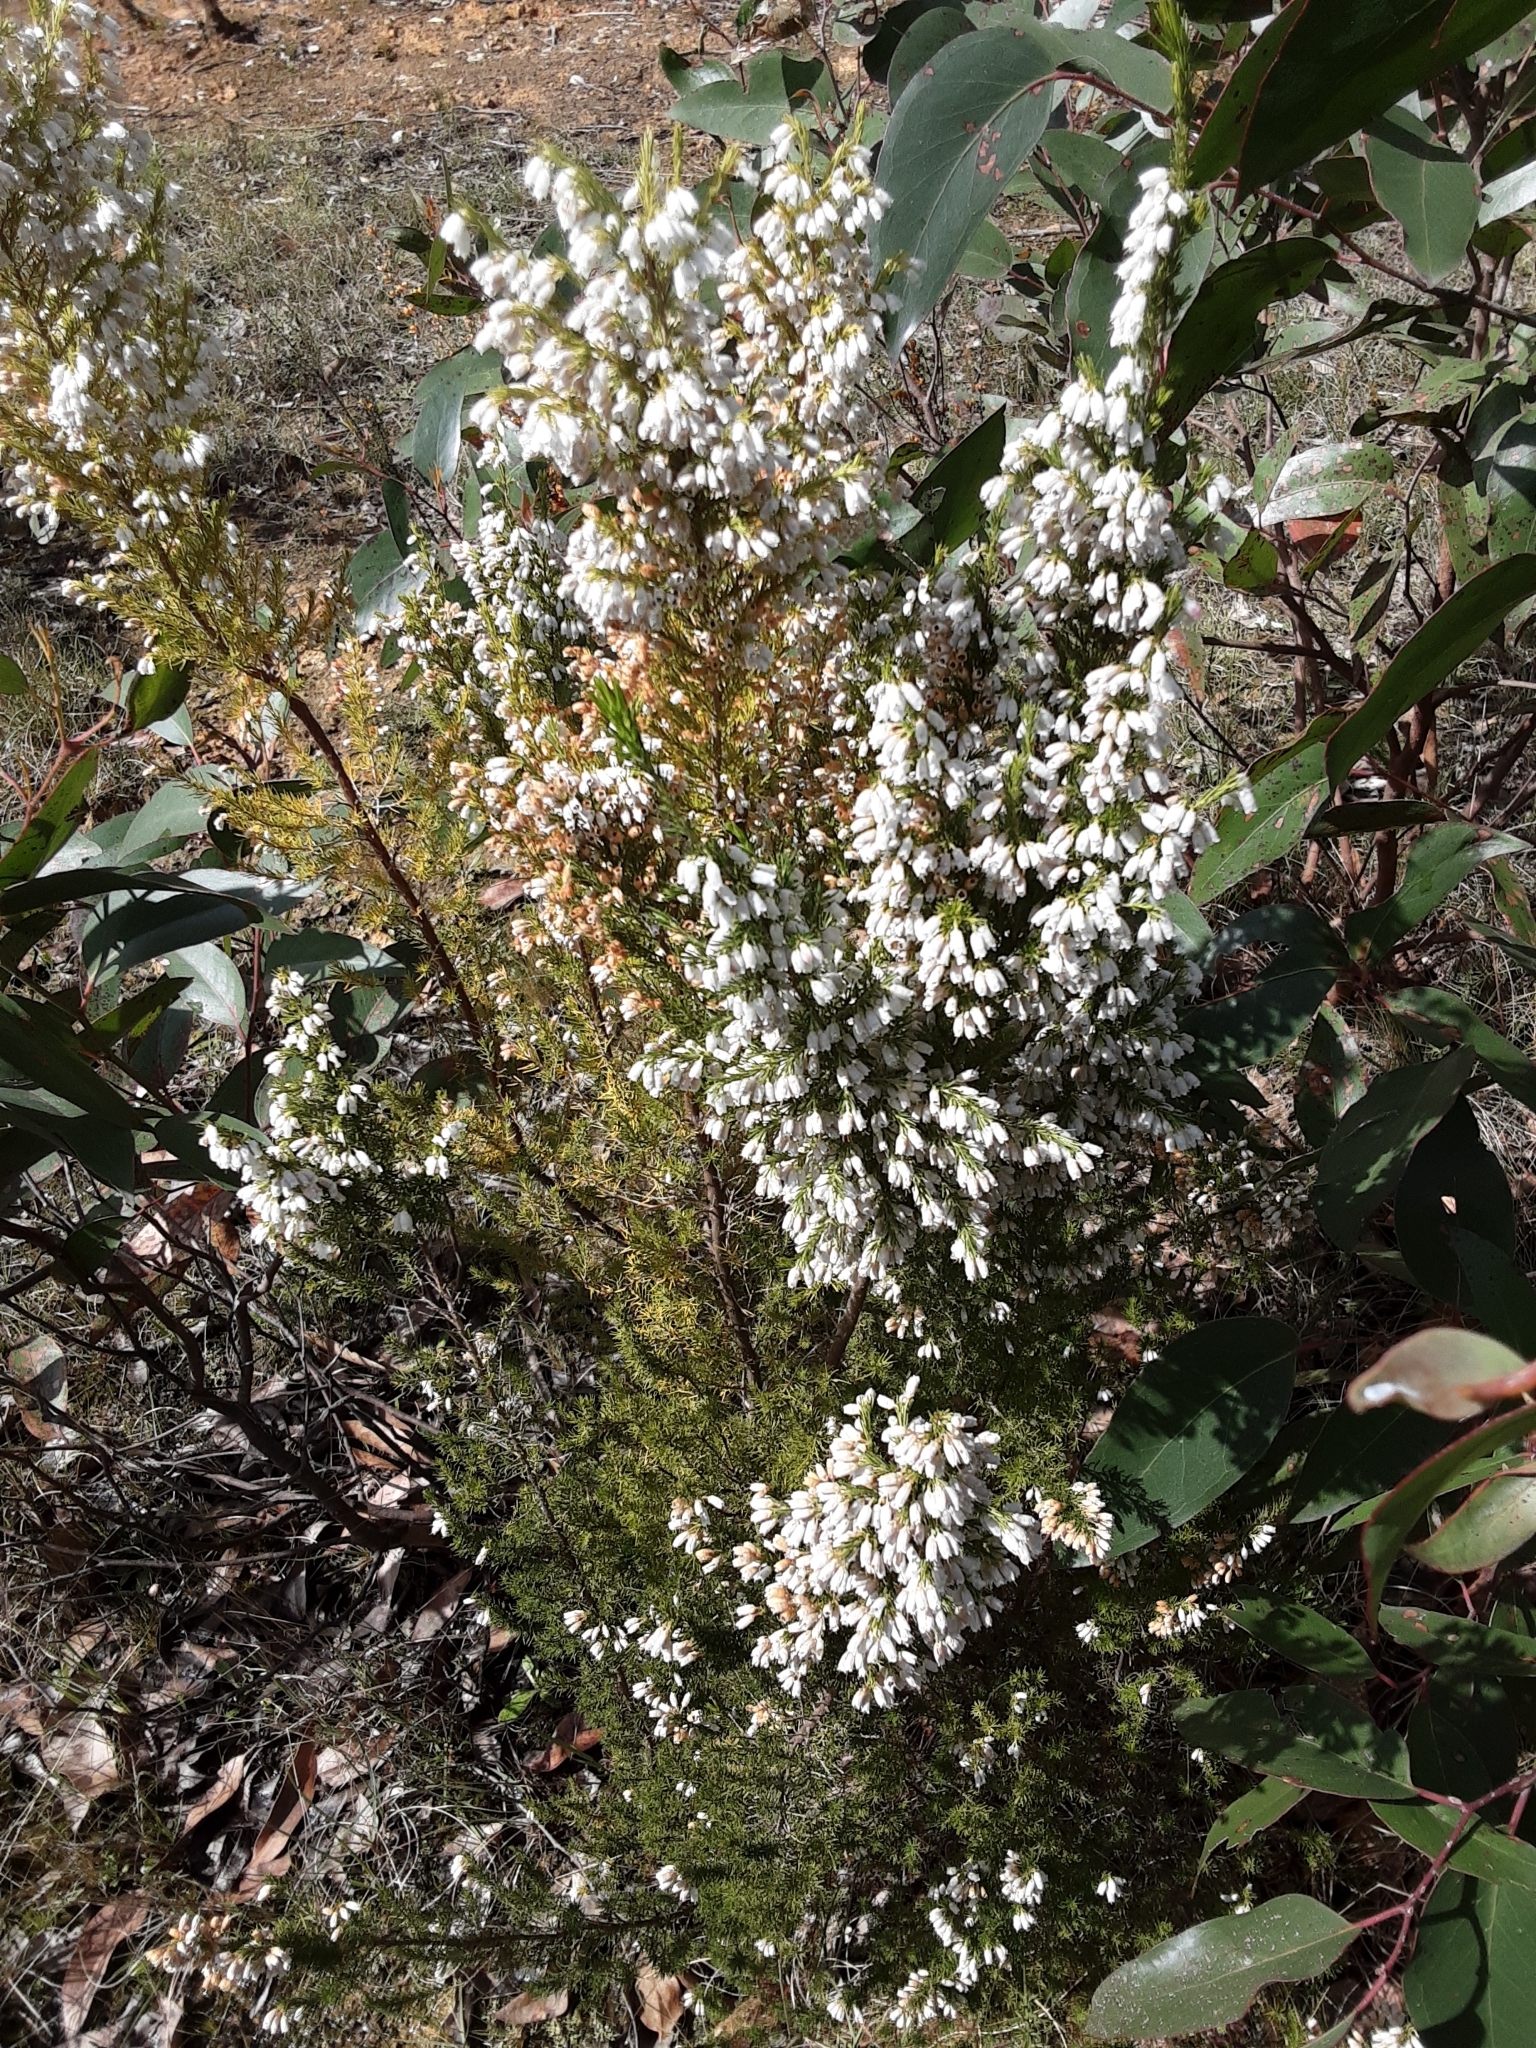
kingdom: Plantae
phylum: Tracheophyta
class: Magnoliopsida
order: Ericales
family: Ericaceae
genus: Erica
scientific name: Erica lusitanica
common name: Spanish heath
